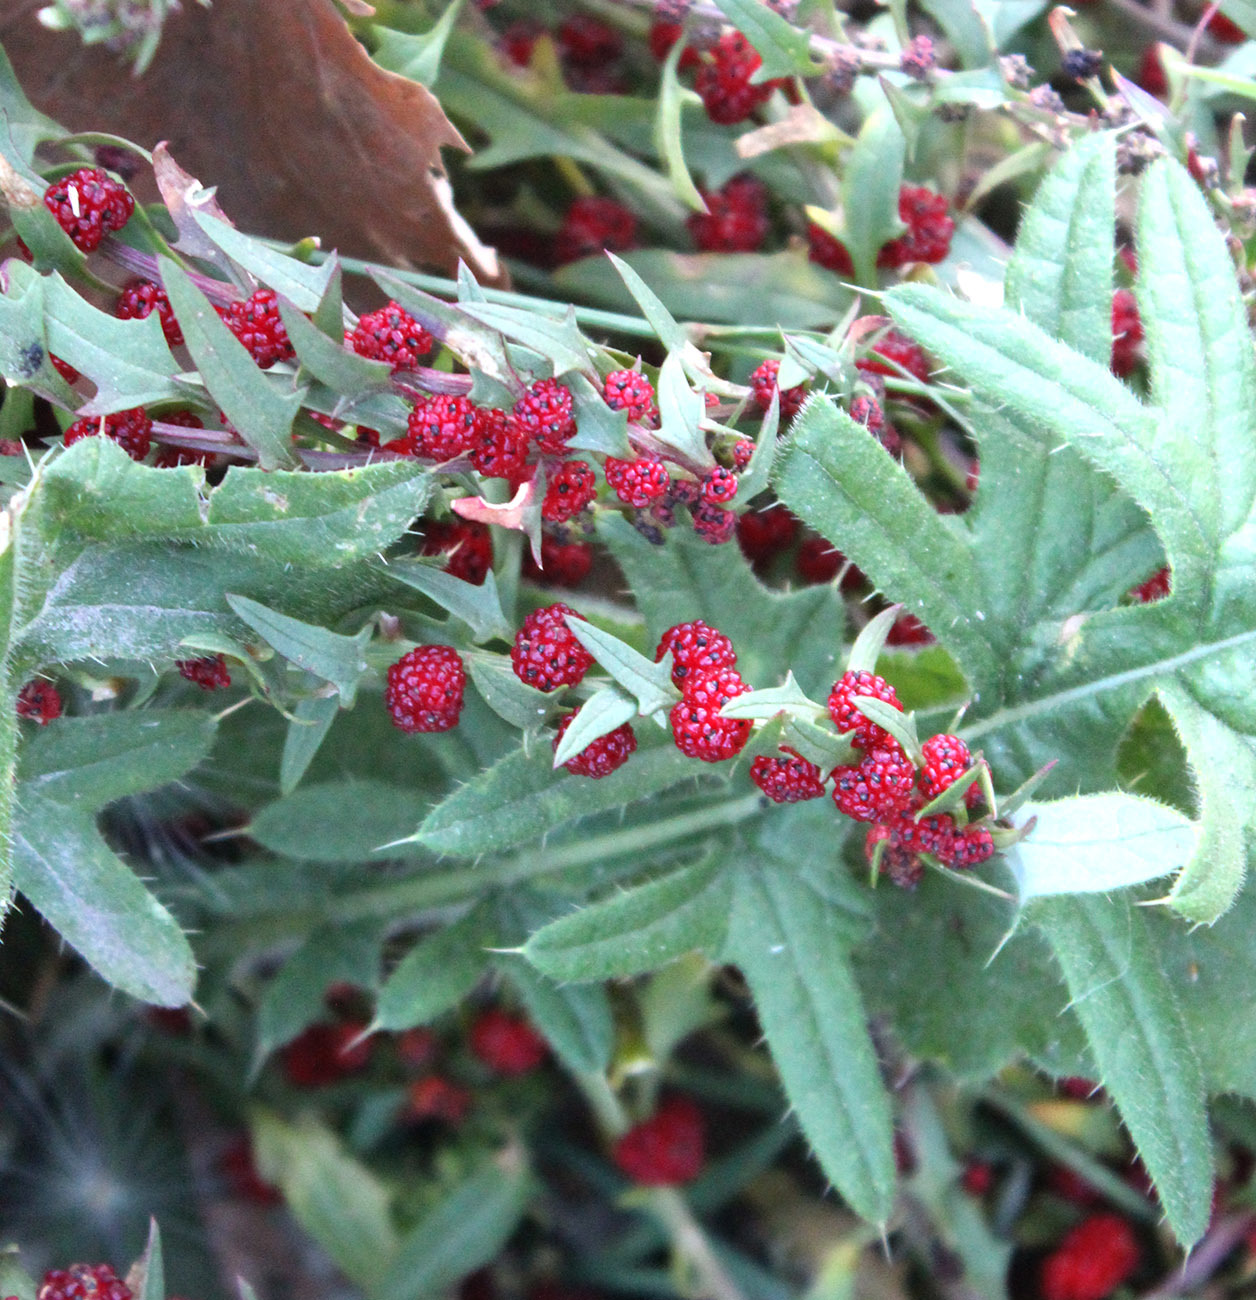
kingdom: Plantae
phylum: Tracheophyta
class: Magnoliopsida
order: Caryophyllales
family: Amaranthaceae
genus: Blitum
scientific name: Blitum virgatum
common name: Strawberry goosefoot
